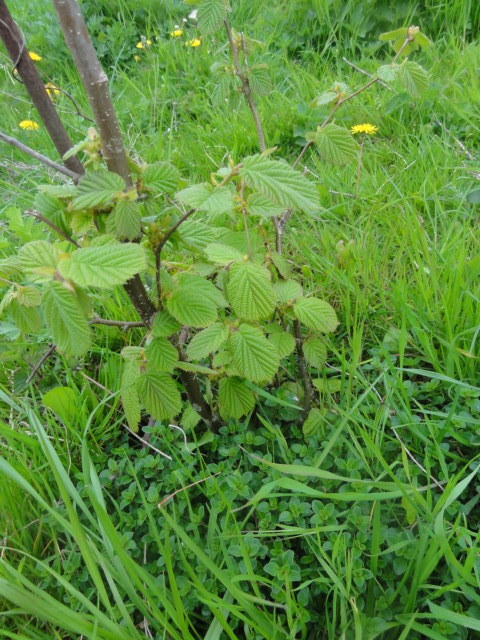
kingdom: Plantae
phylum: Tracheophyta
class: Magnoliopsida
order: Fagales
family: Betulaceae
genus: Corylus
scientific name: Corylus avellana
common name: European hazel
